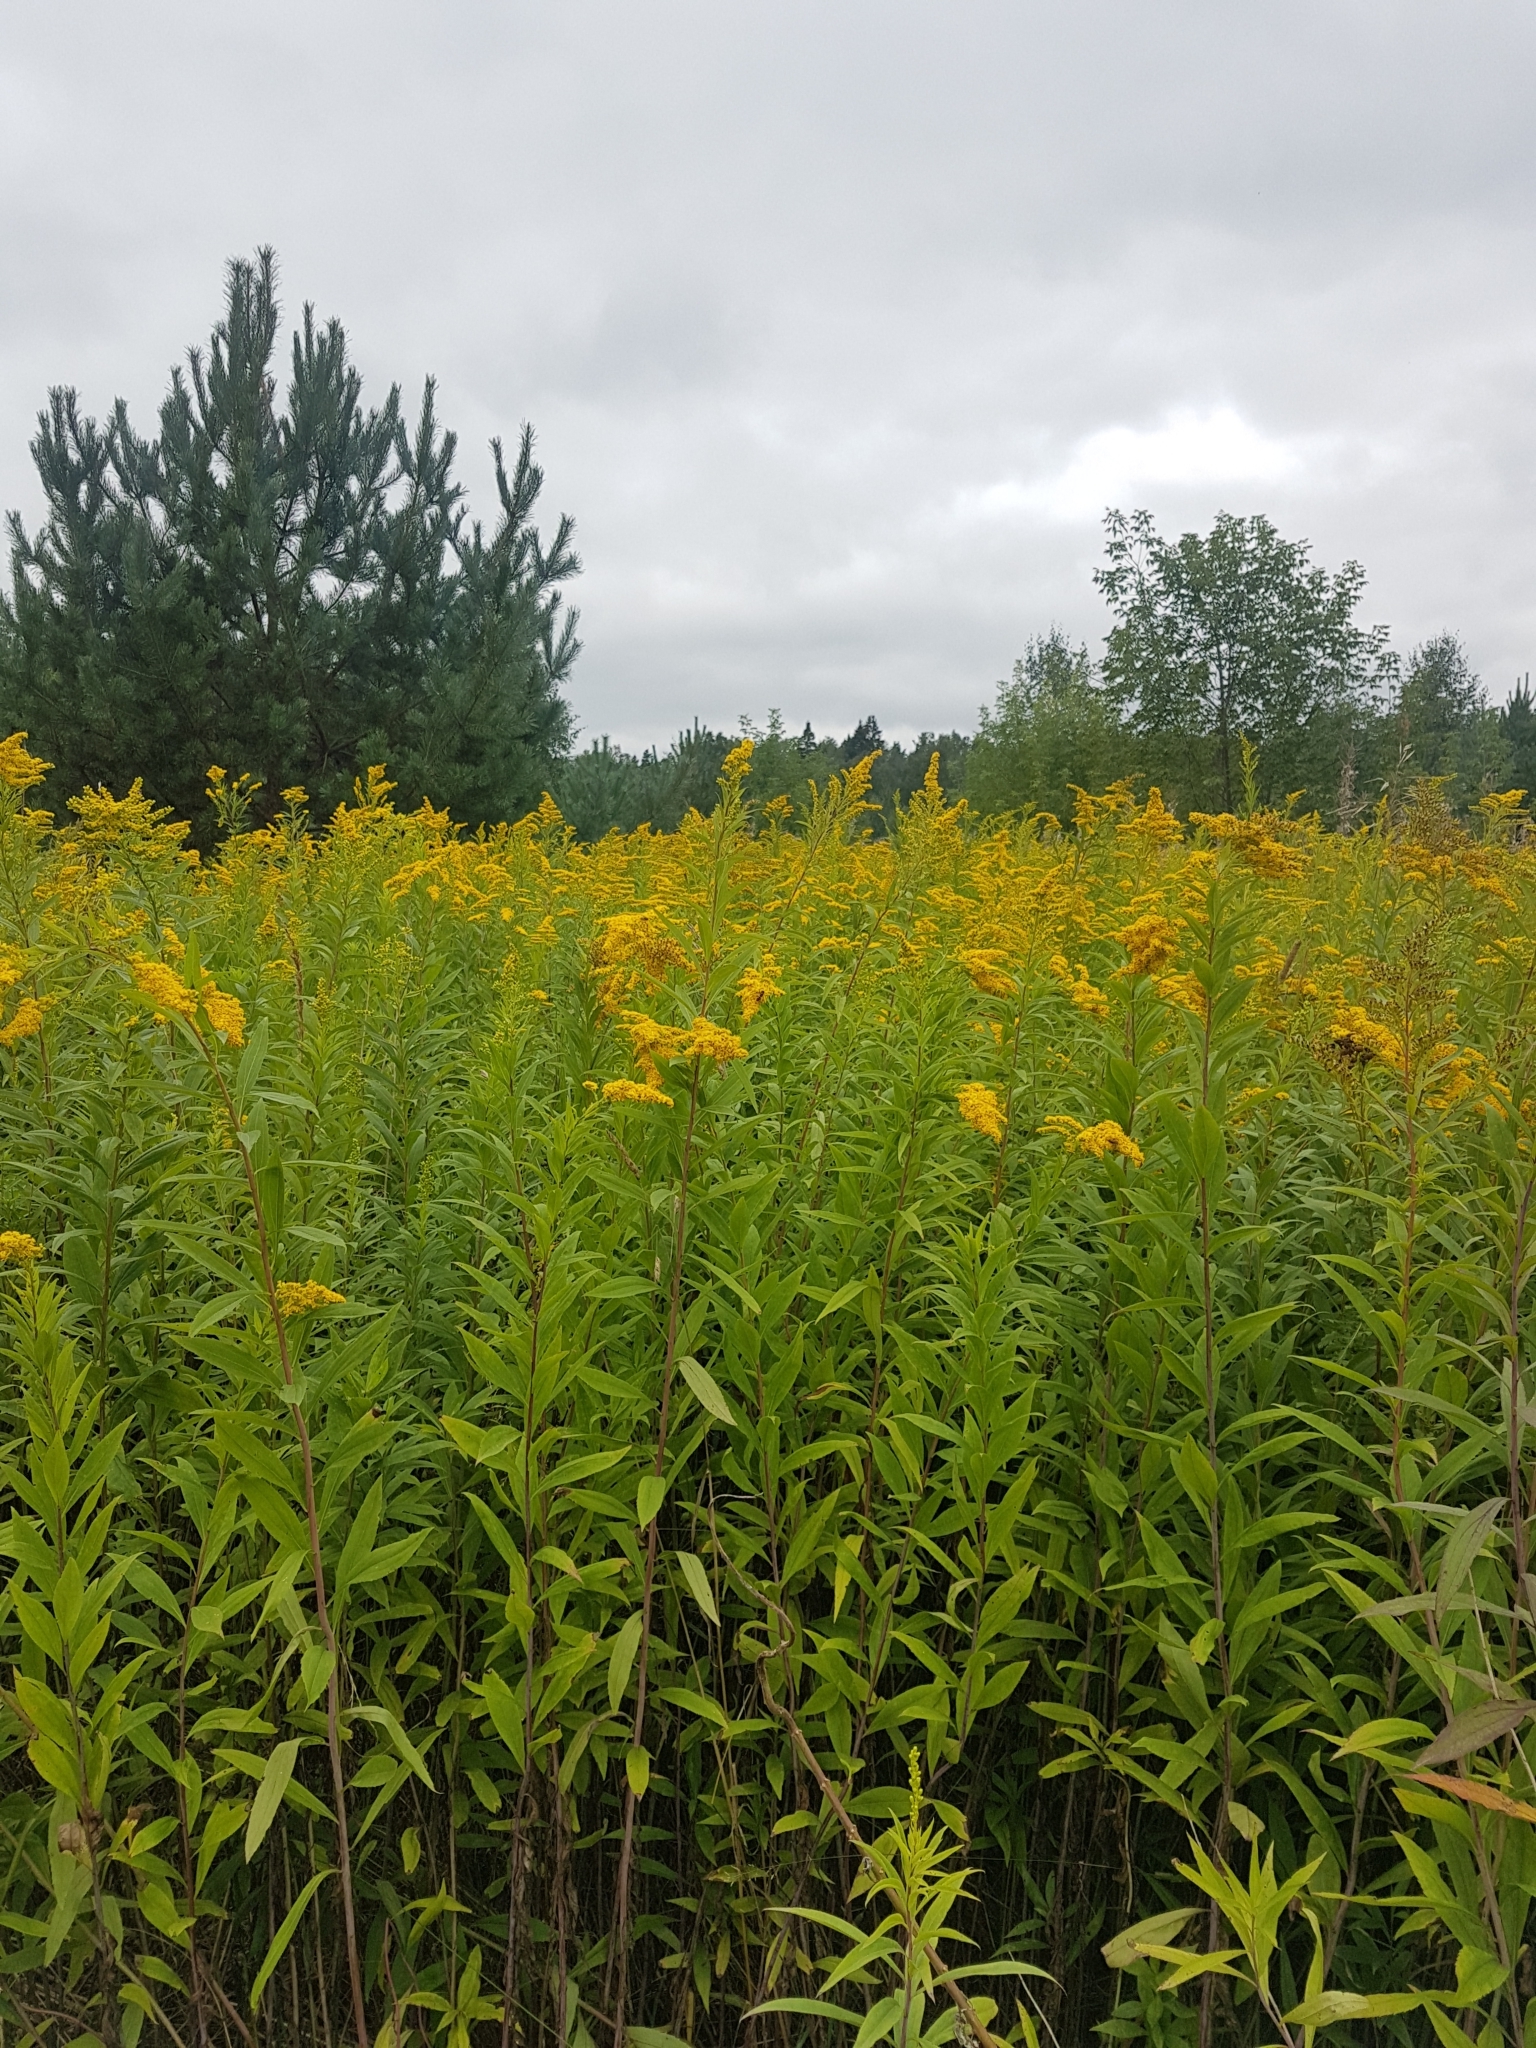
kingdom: Plantae
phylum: Tracheophyta
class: Magnoliopsida
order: Asterales
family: Asteraceae
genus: Solidago
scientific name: Solidago gigantea
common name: Giant goldenrod
